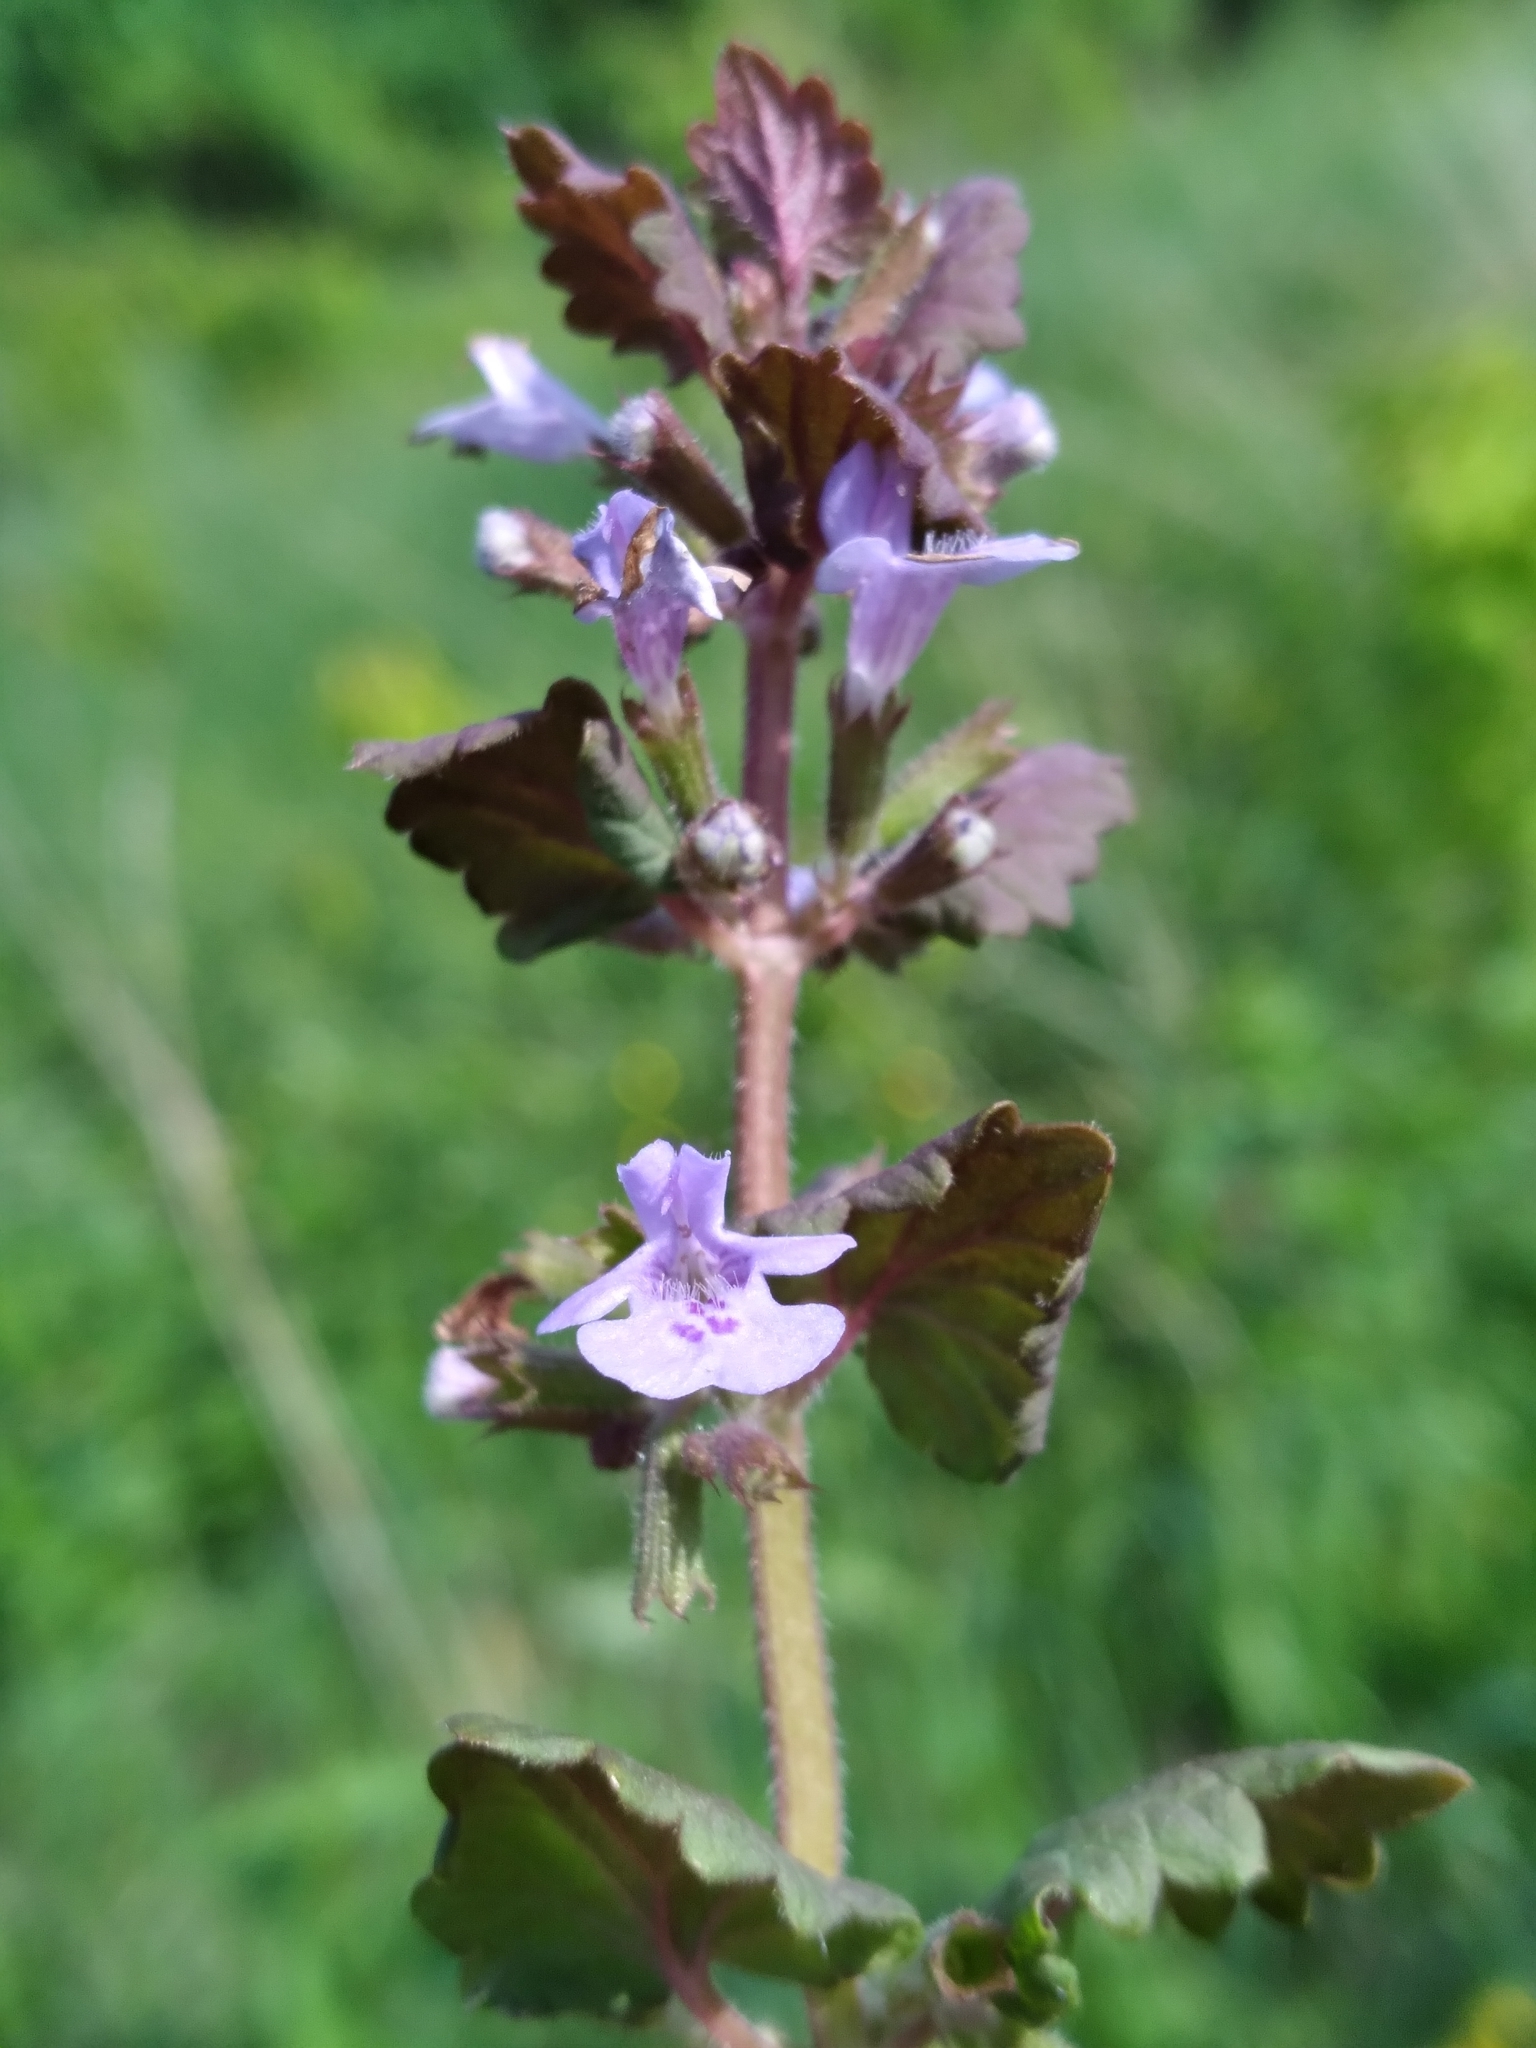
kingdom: Plantae
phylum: Tracheophyta
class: Magnoliopsida
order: Lamiales
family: Lamiaceae
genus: Glechoma
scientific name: Glechoma hederacea
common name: Ground ivy
